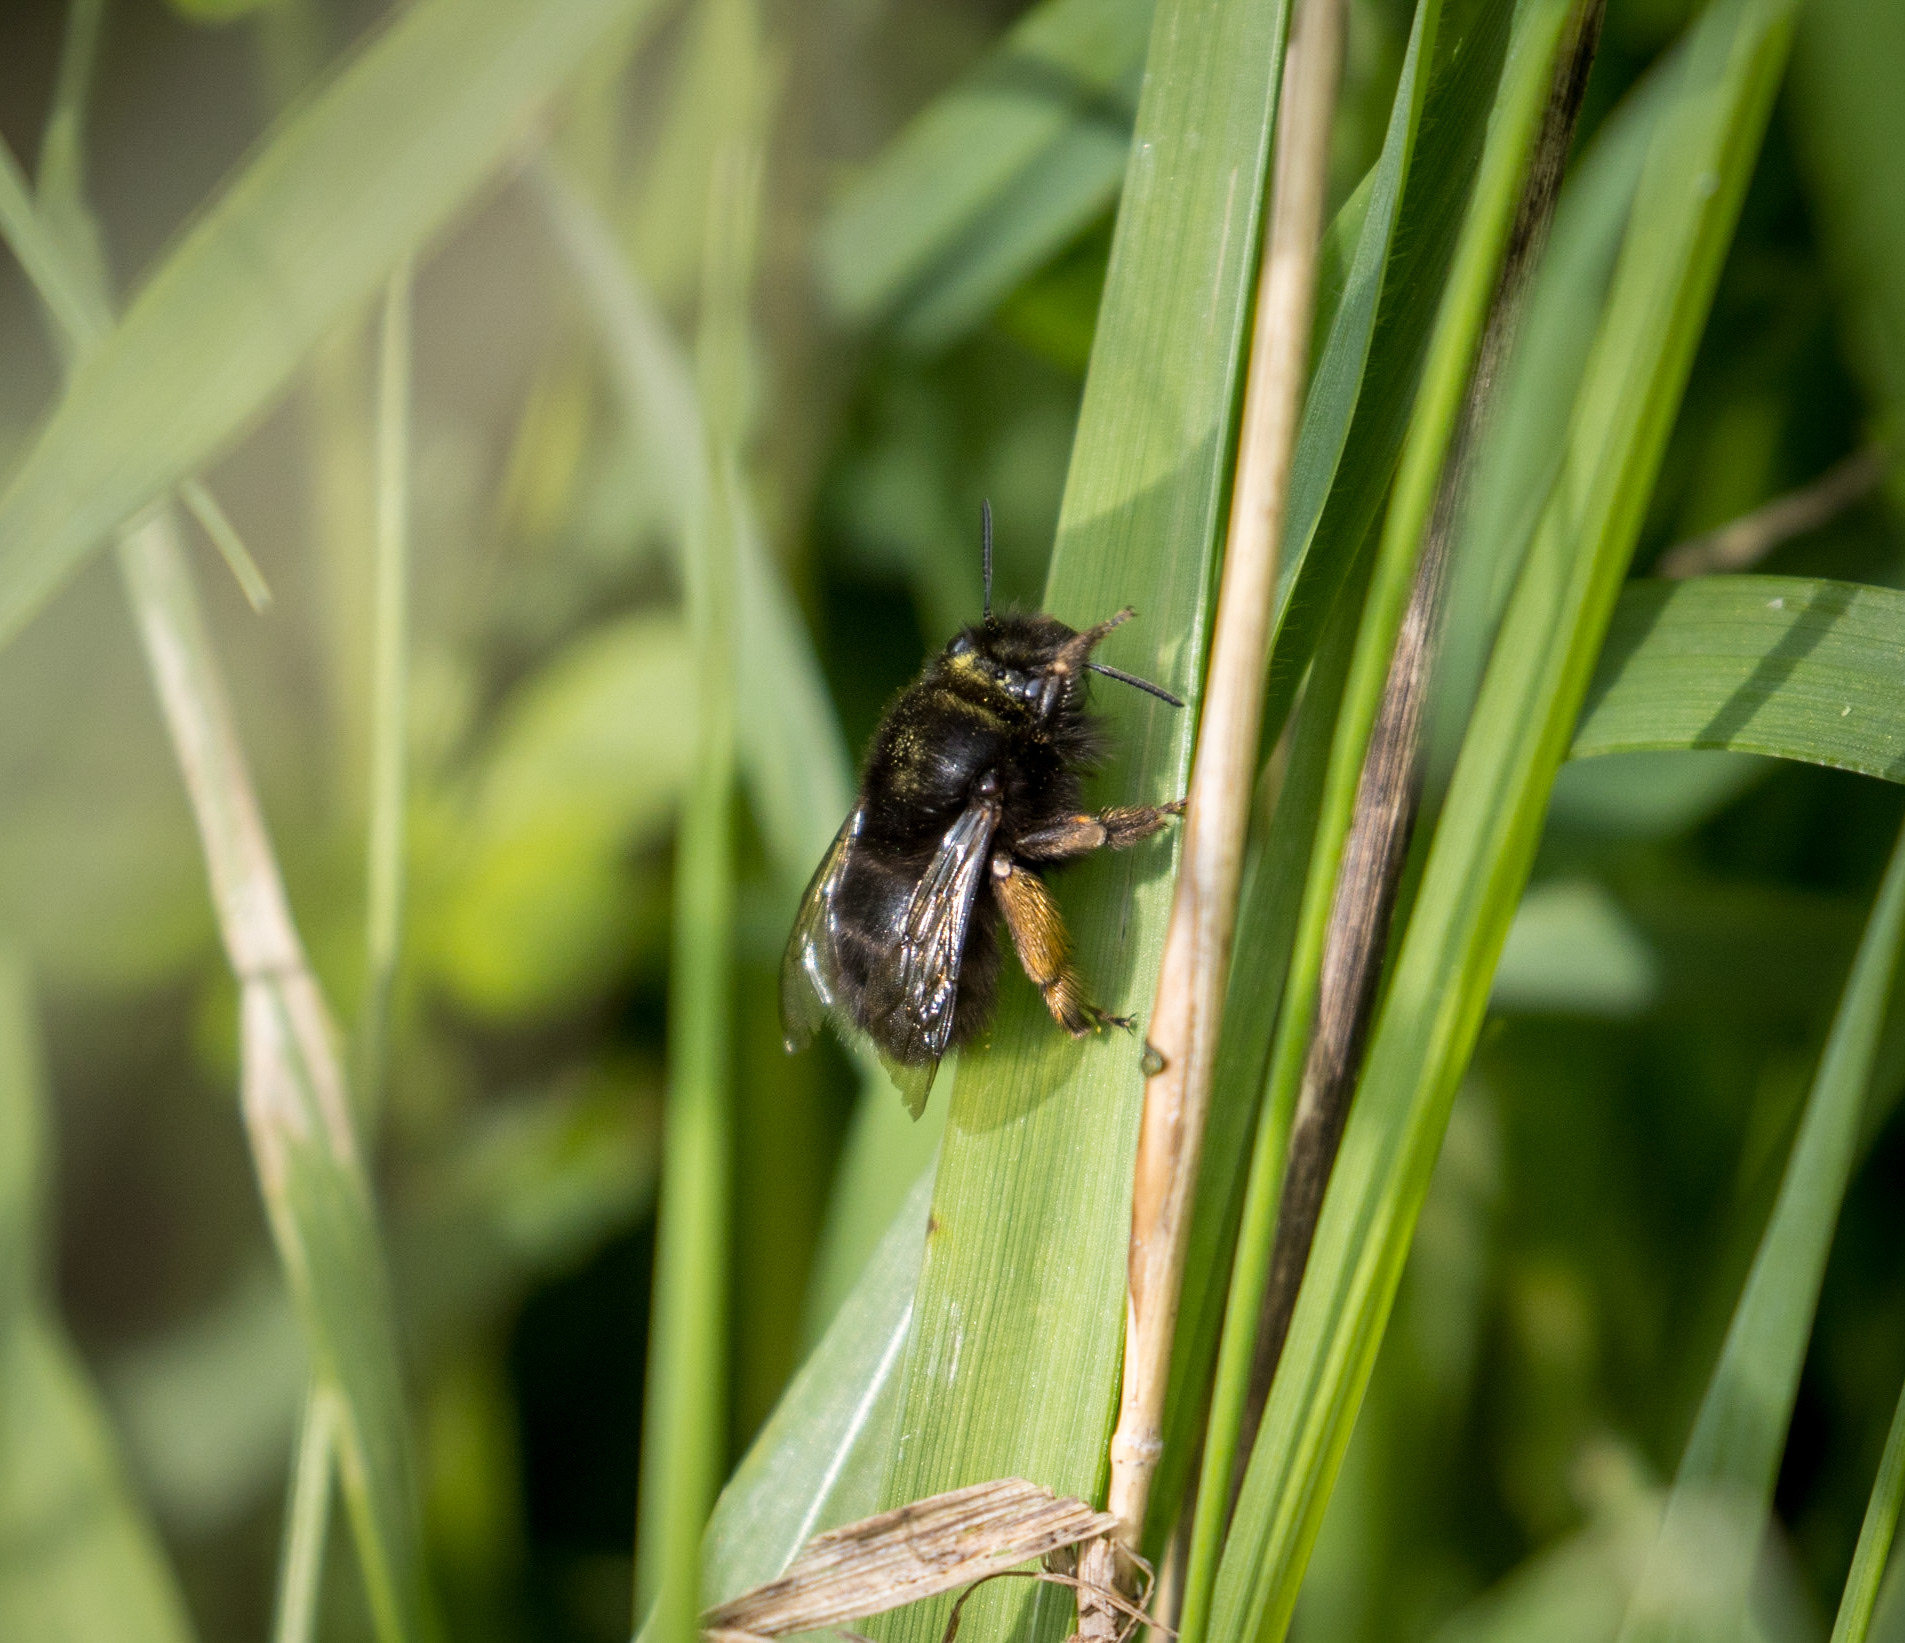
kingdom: Animalia
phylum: Arthropoda
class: Insecta
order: Hymenoptera
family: Apidae
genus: Anthophora
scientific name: Anthophora plumipes
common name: Hairy-footed flower bee
